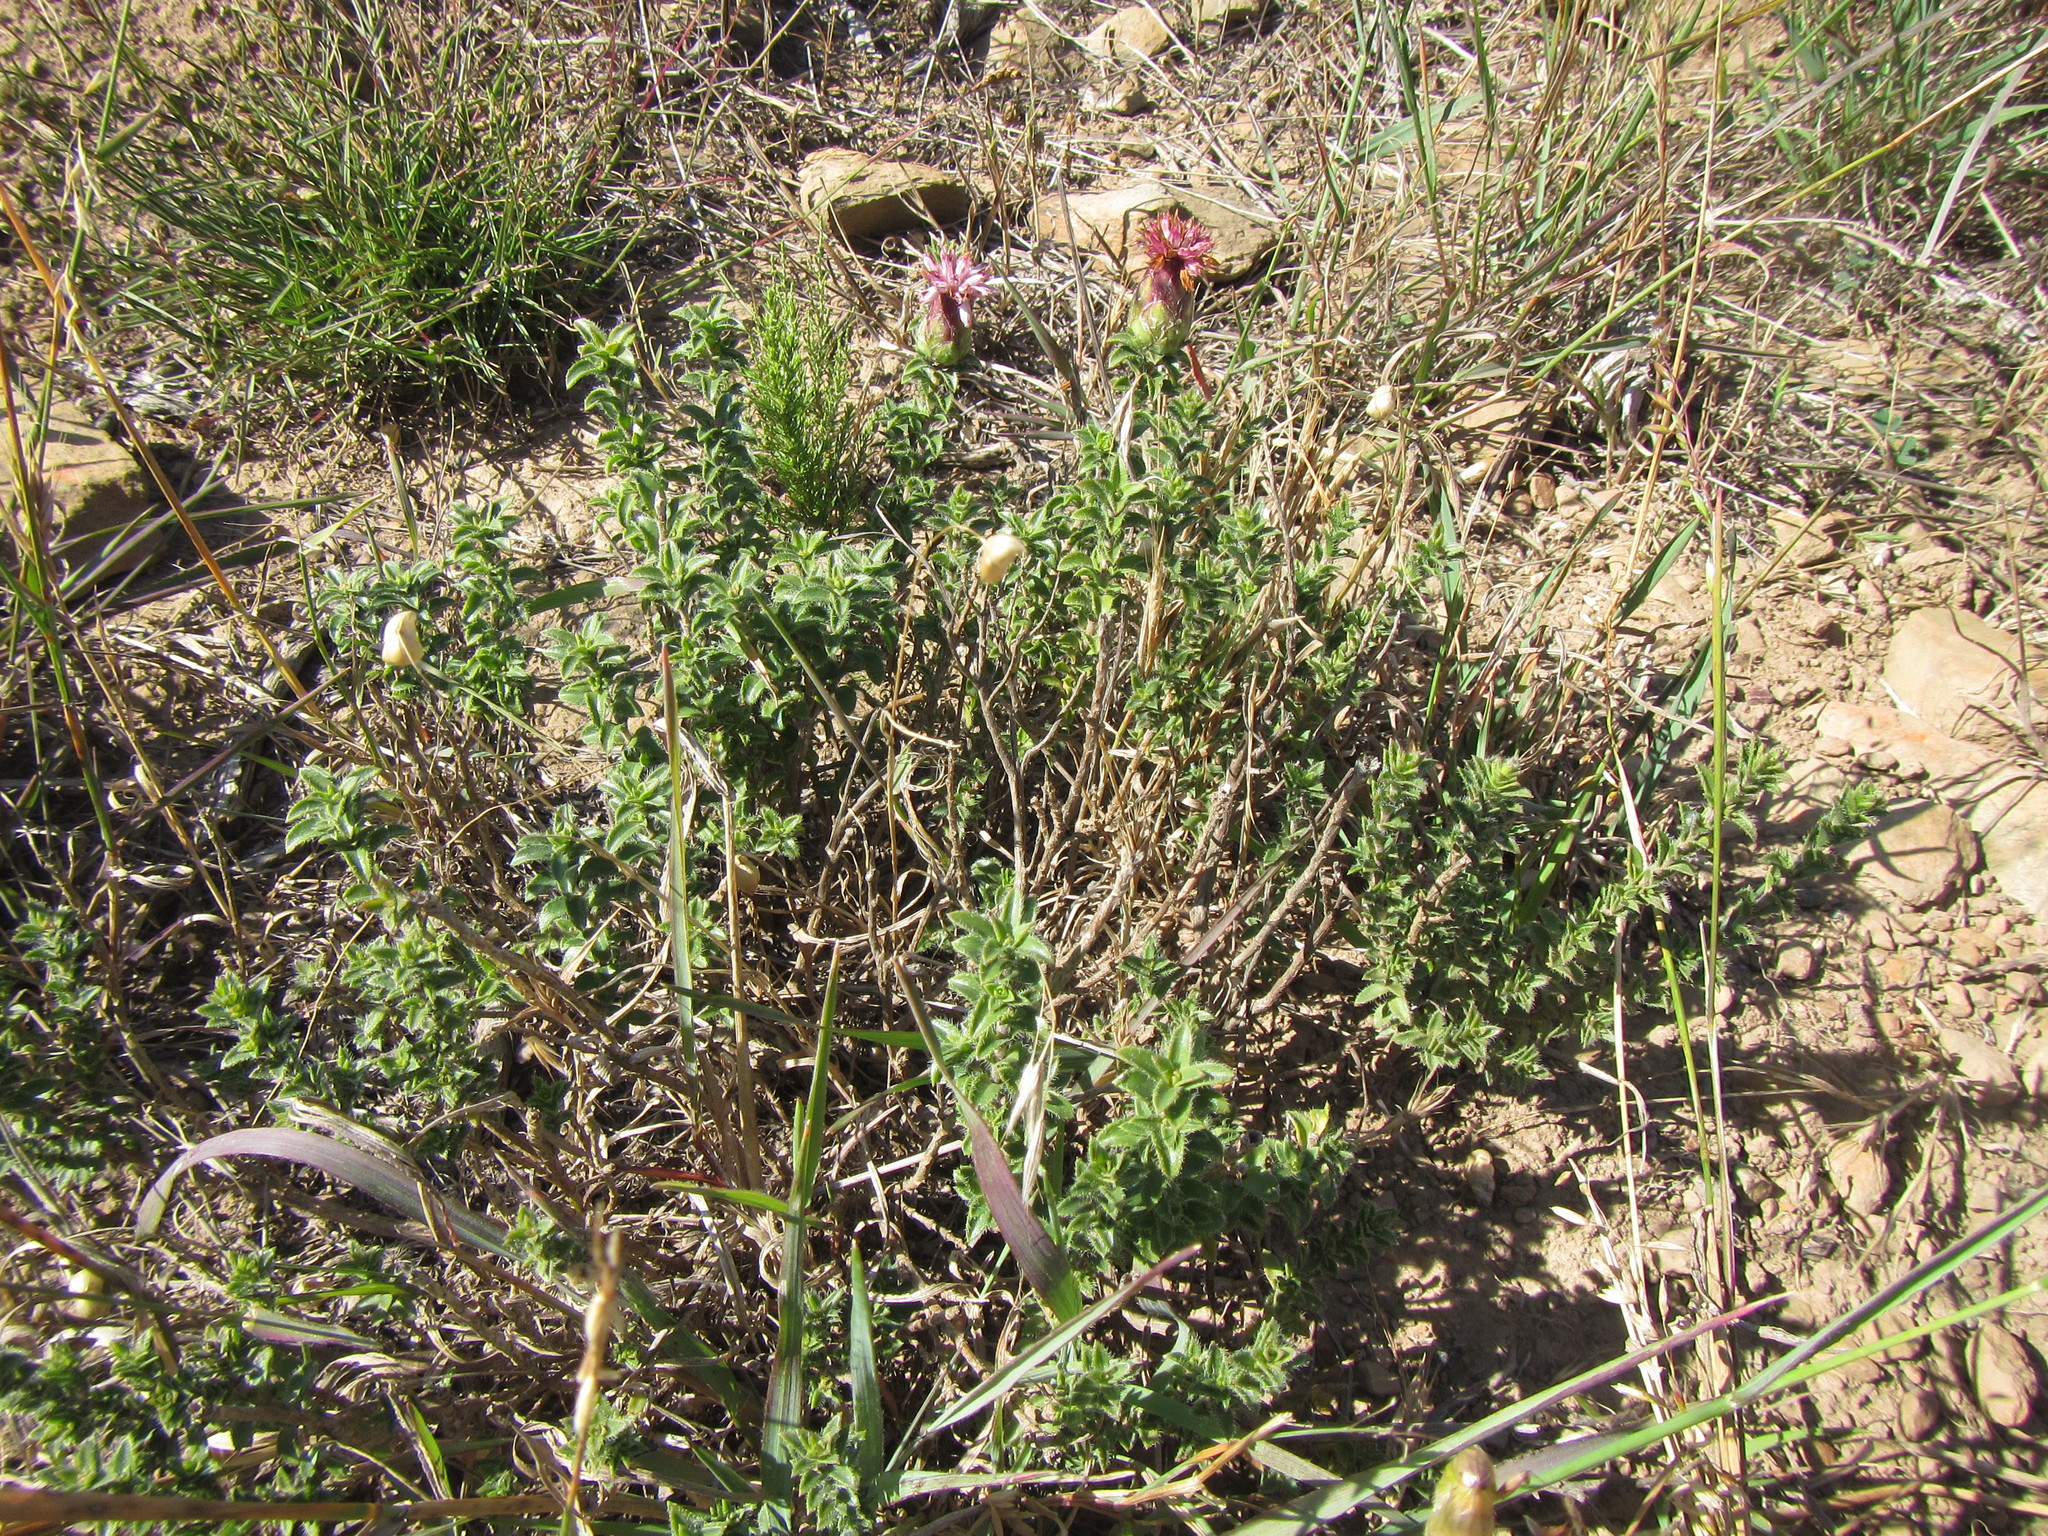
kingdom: Plantae
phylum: Tracheophyta
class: Magnoliopsida
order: Asterales
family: Asteraceae
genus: Pteronia
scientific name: Pteronia hirsuta
